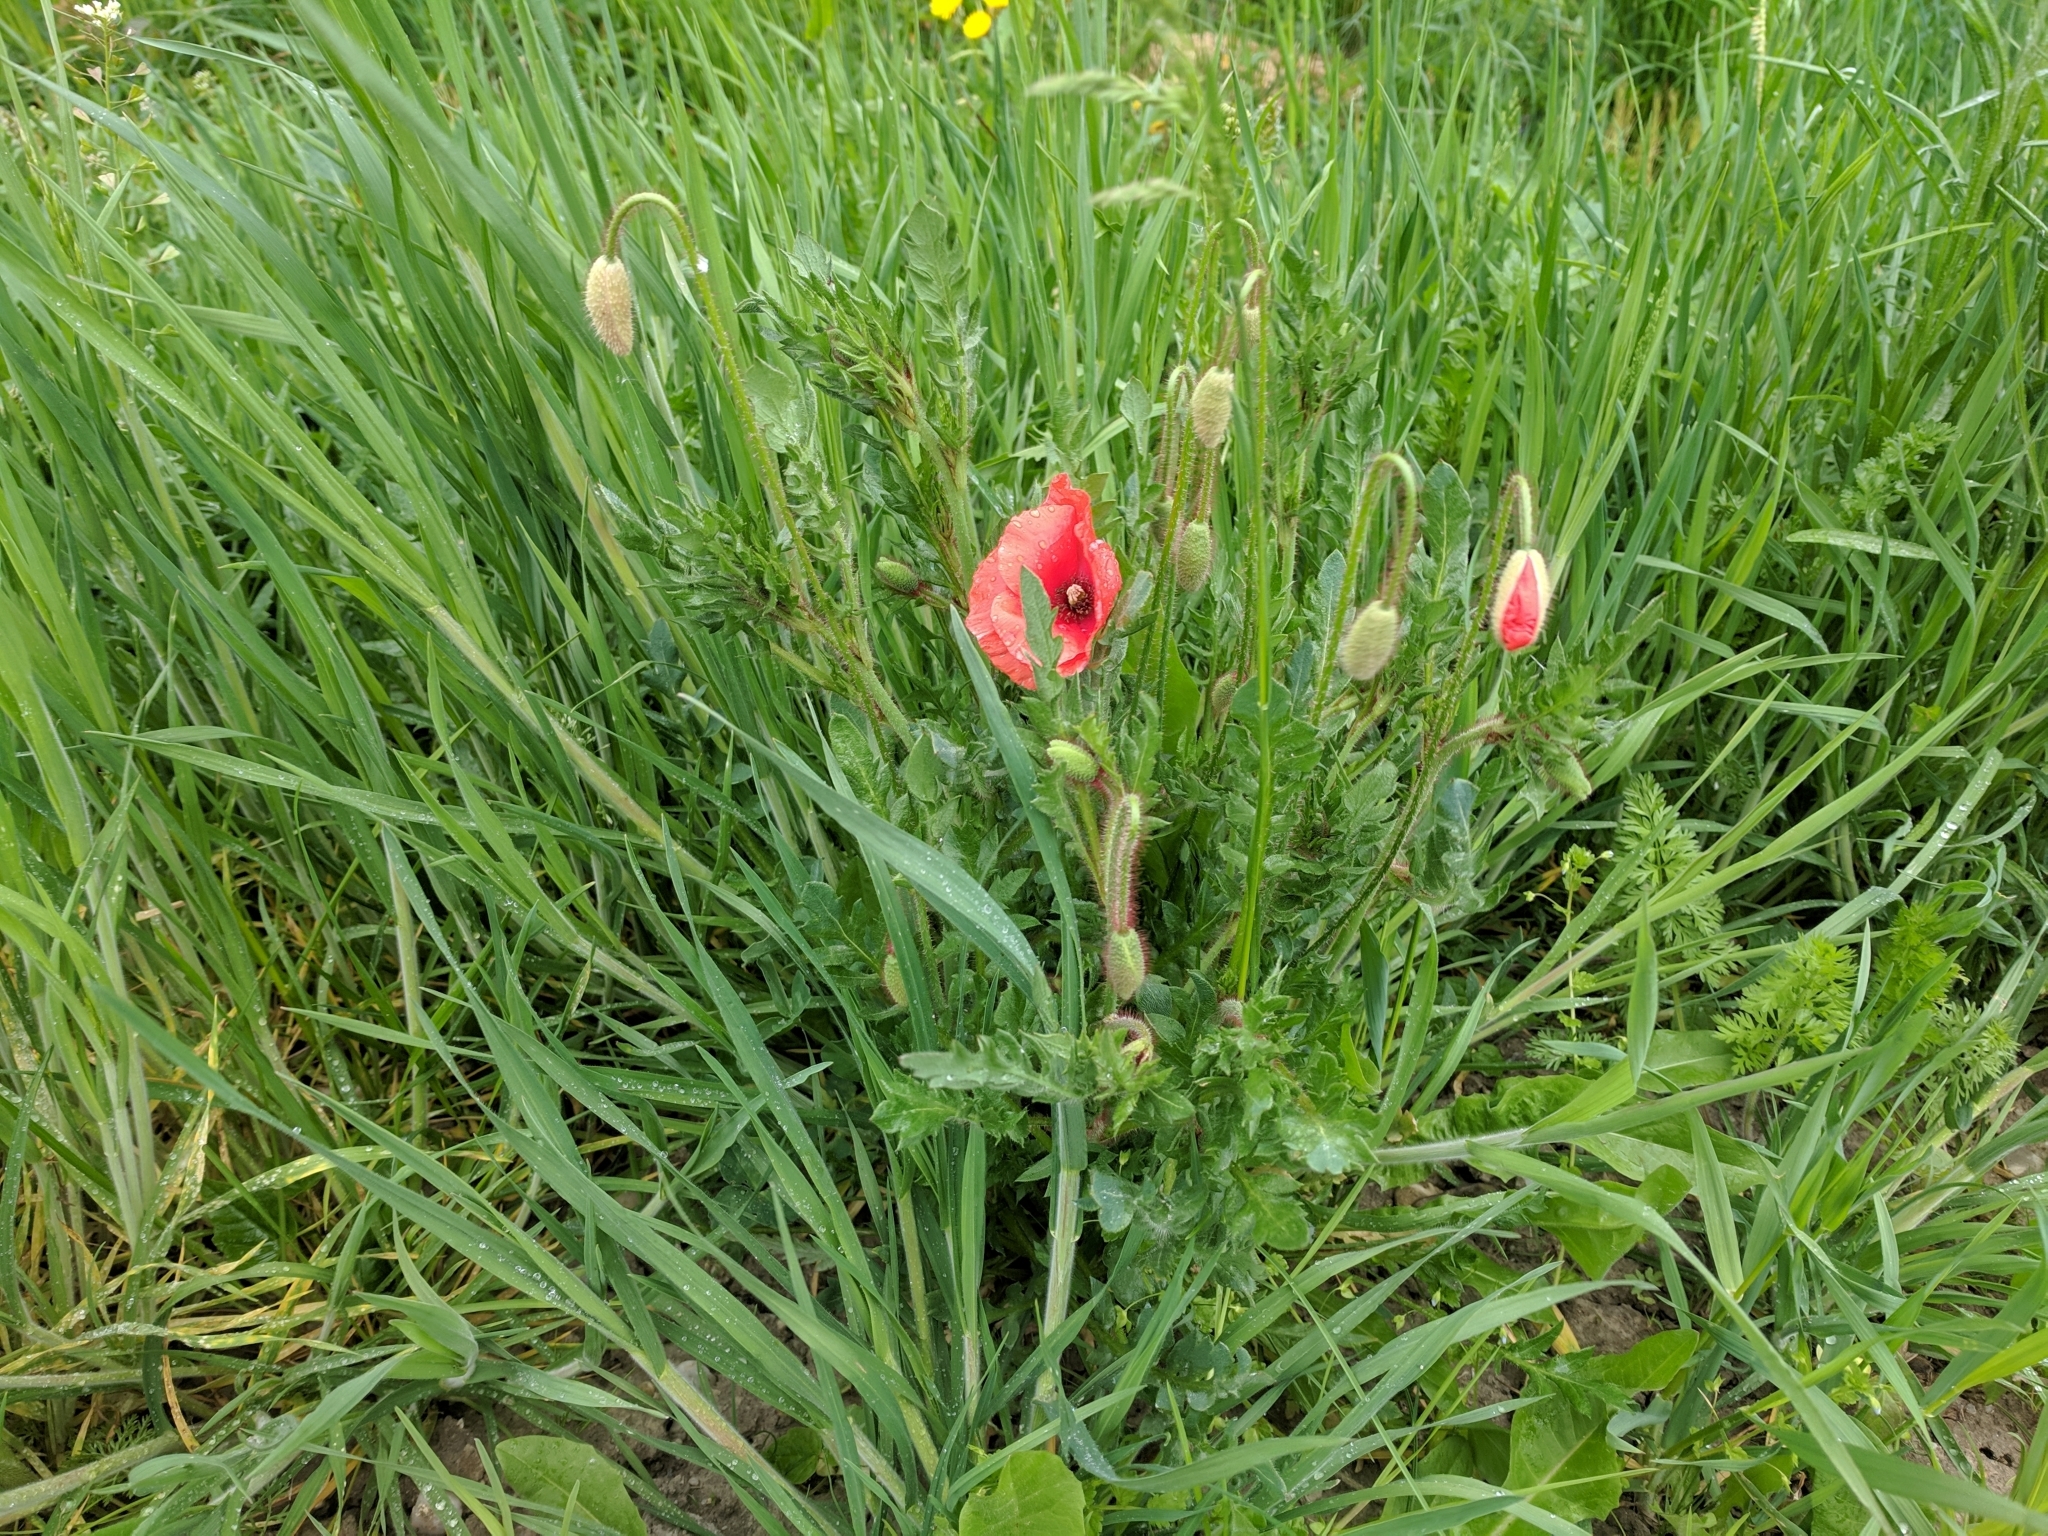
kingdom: Plantae
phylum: Tracheophyta
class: Magnoliopsida
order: Ranunculales
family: Papaveraceae
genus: Papaver
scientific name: Papaver rhoeas
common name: Corn poppy
